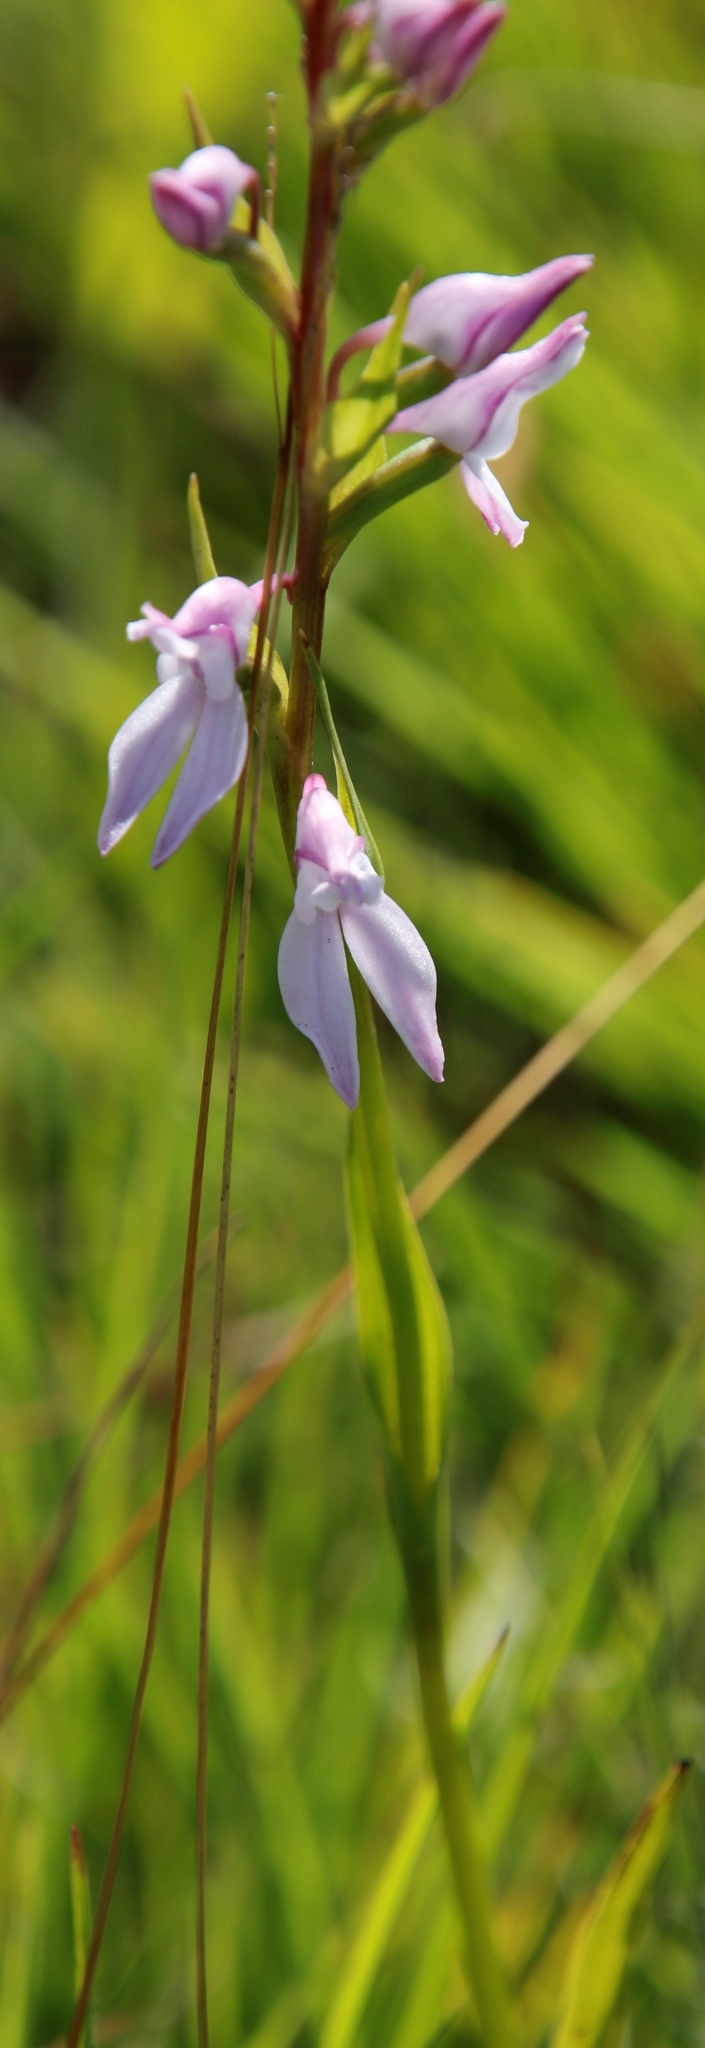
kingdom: Plantae
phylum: Tracheophyta
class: Liliopsida
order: Asparagales
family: Orchidaceae
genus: Brownleea
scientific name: Brownleea recurvata
